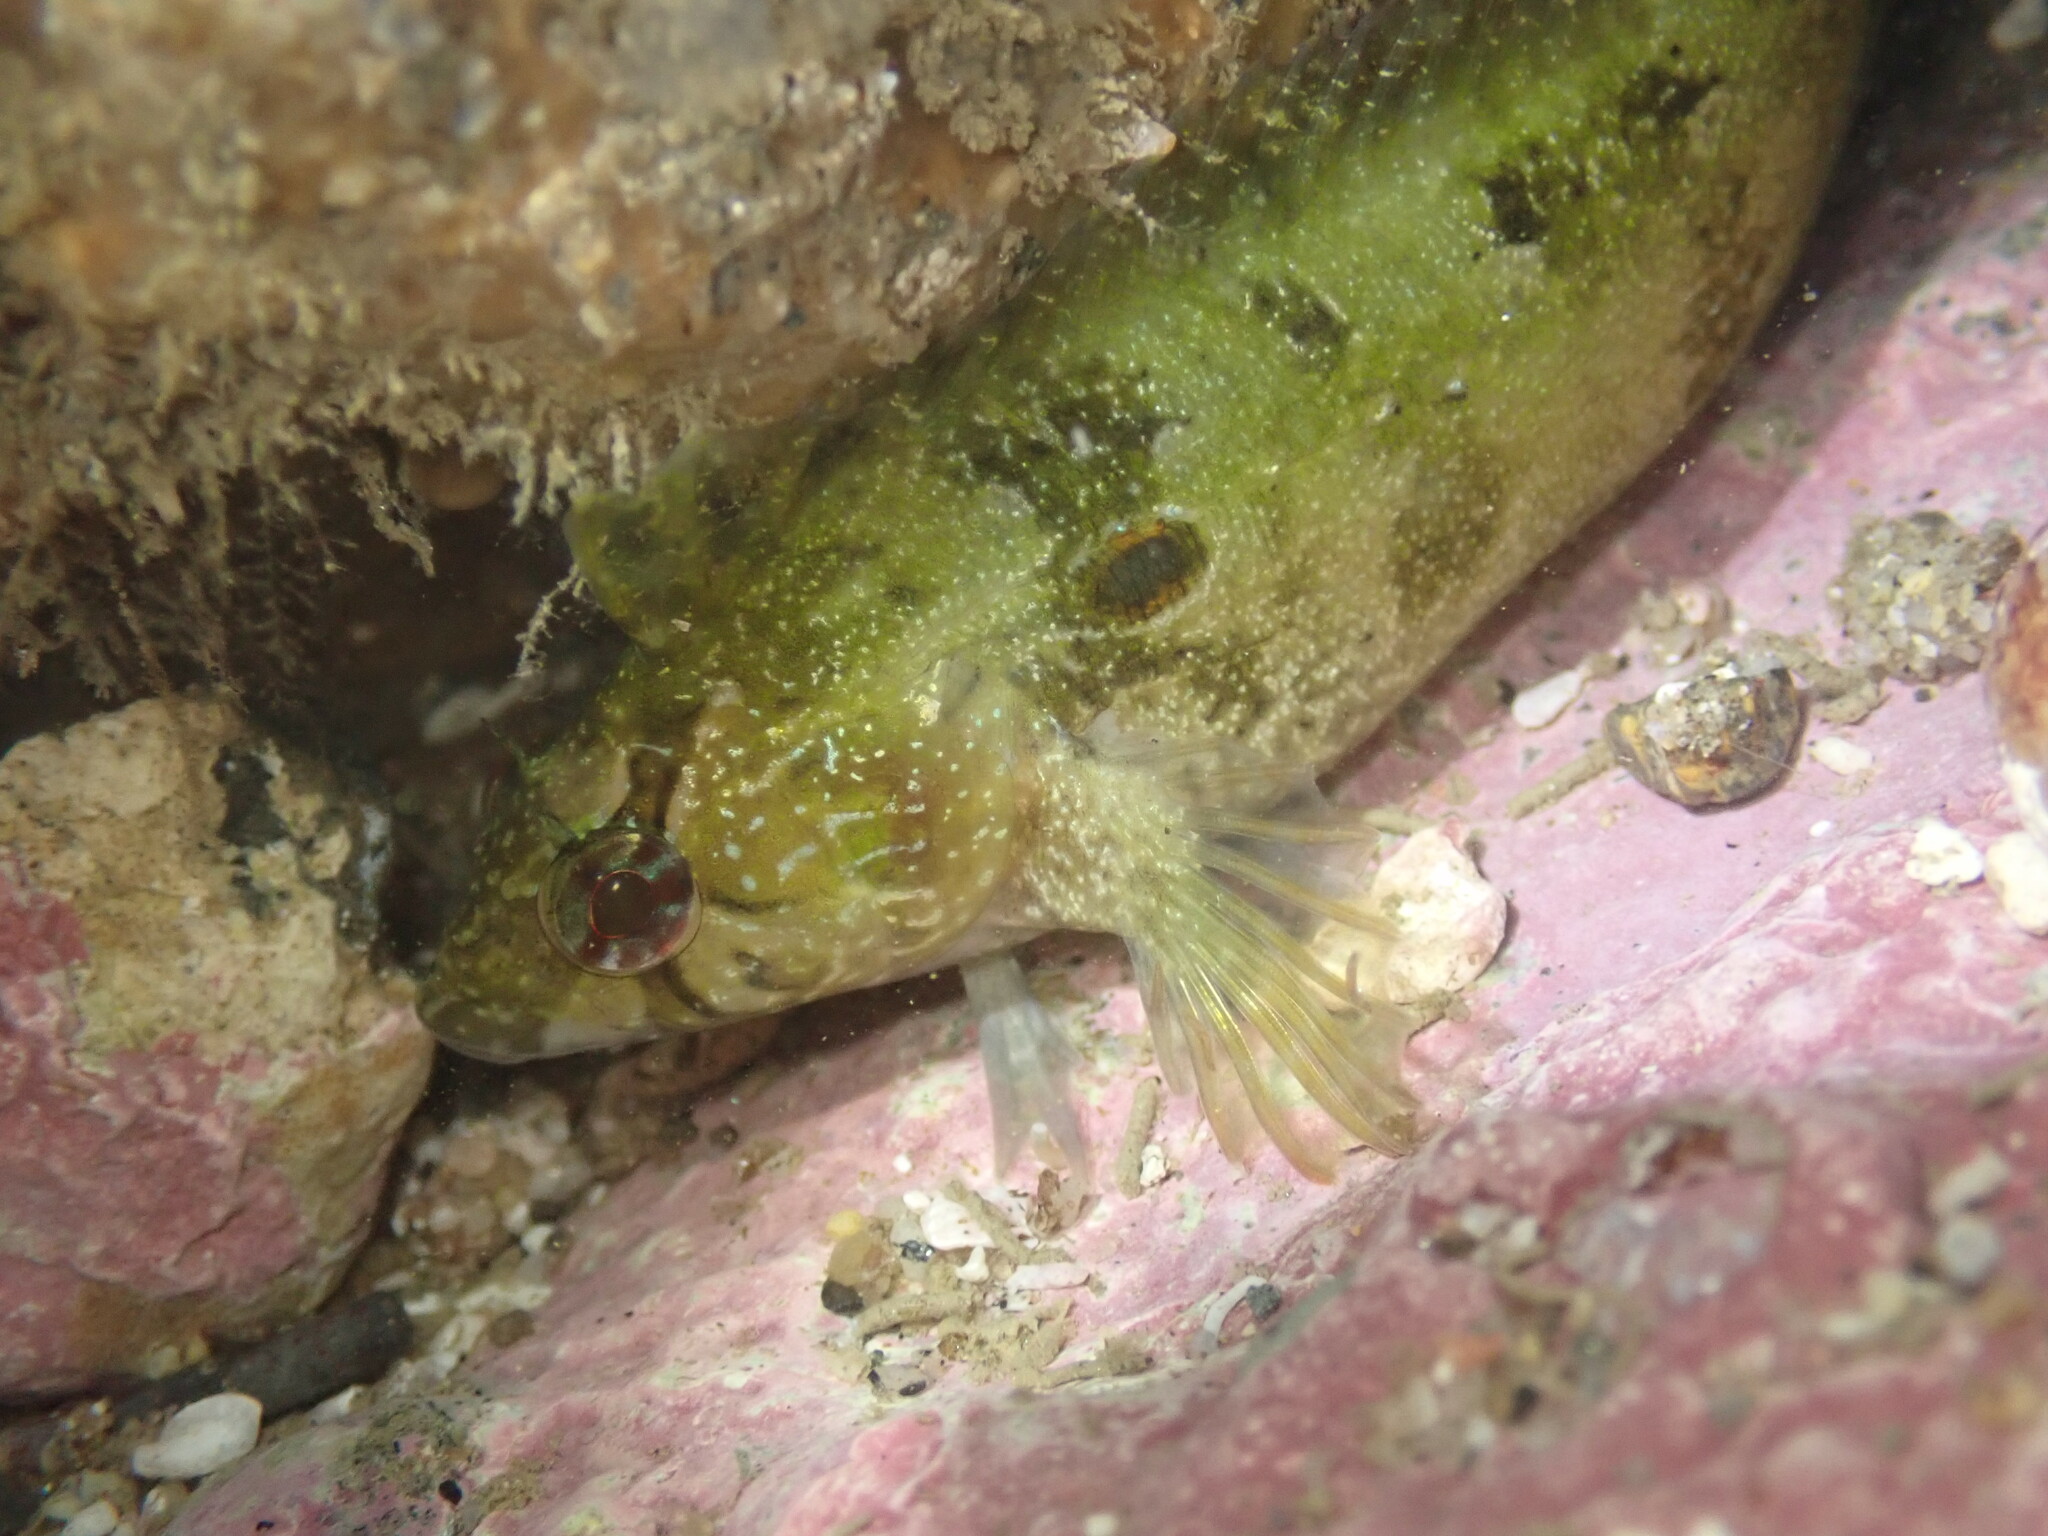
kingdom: Animalia
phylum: Chordata
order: Perciformes
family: Clinidae
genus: Gibbonsia
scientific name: Gibbonsia elegans
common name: Spotted kelpfish
